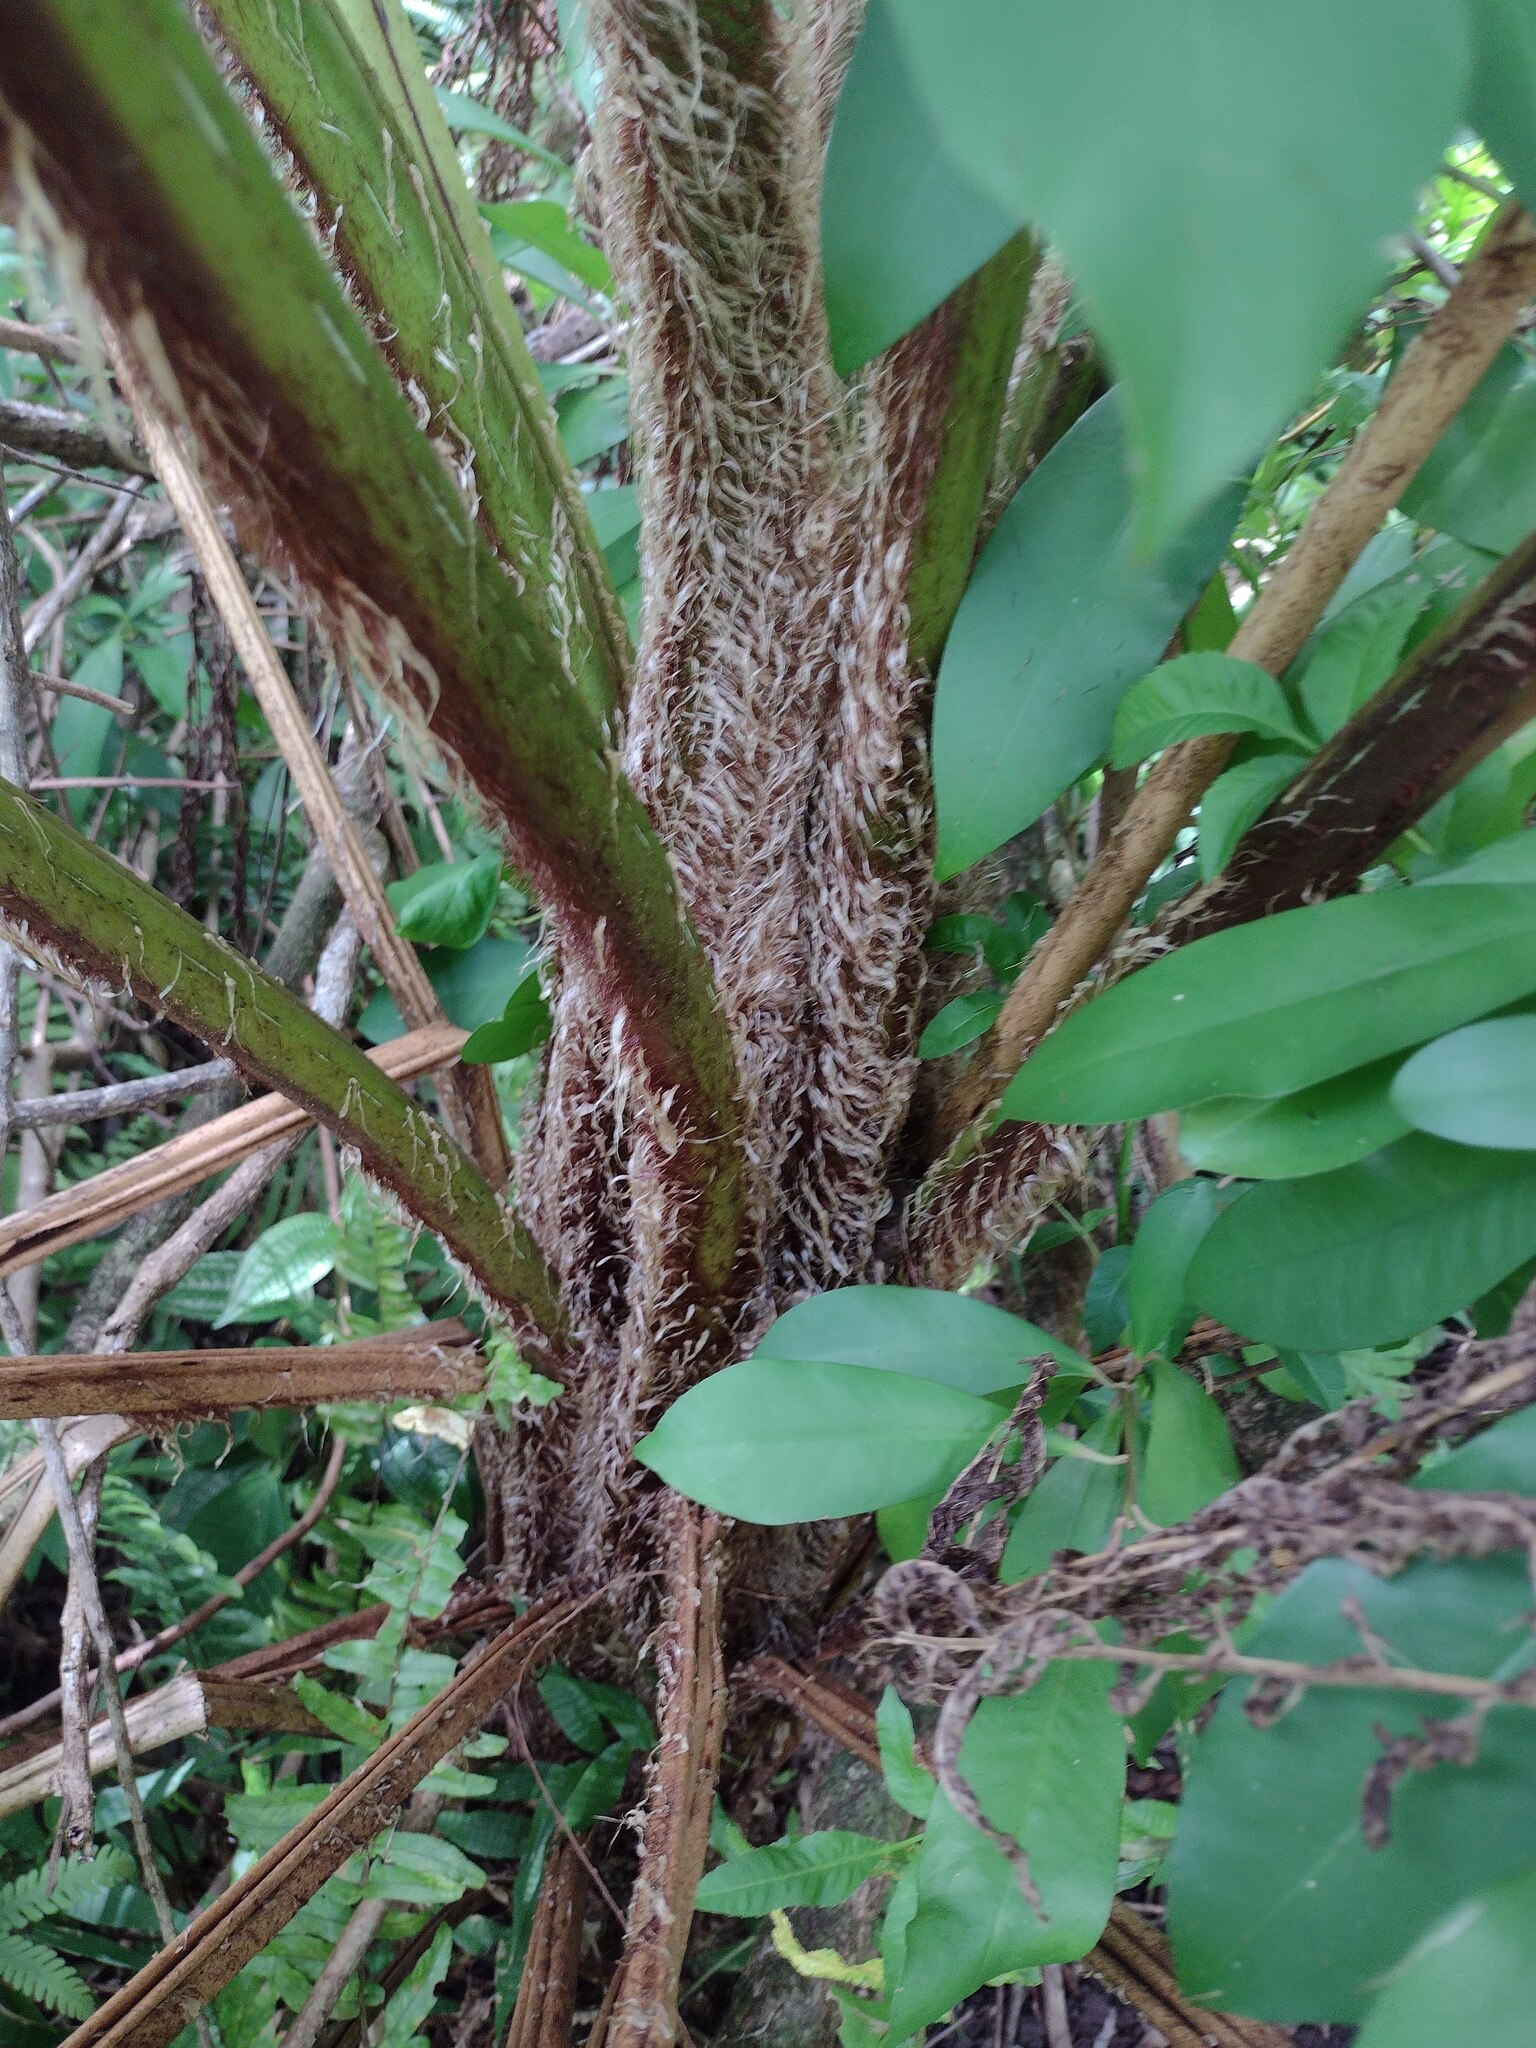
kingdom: Plantae
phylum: Tracheophyta
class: Polypodiopsida
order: Cyatheales
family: Cyatheaceae
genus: Sphaeropteris
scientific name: Sphaeropteris cooperi
